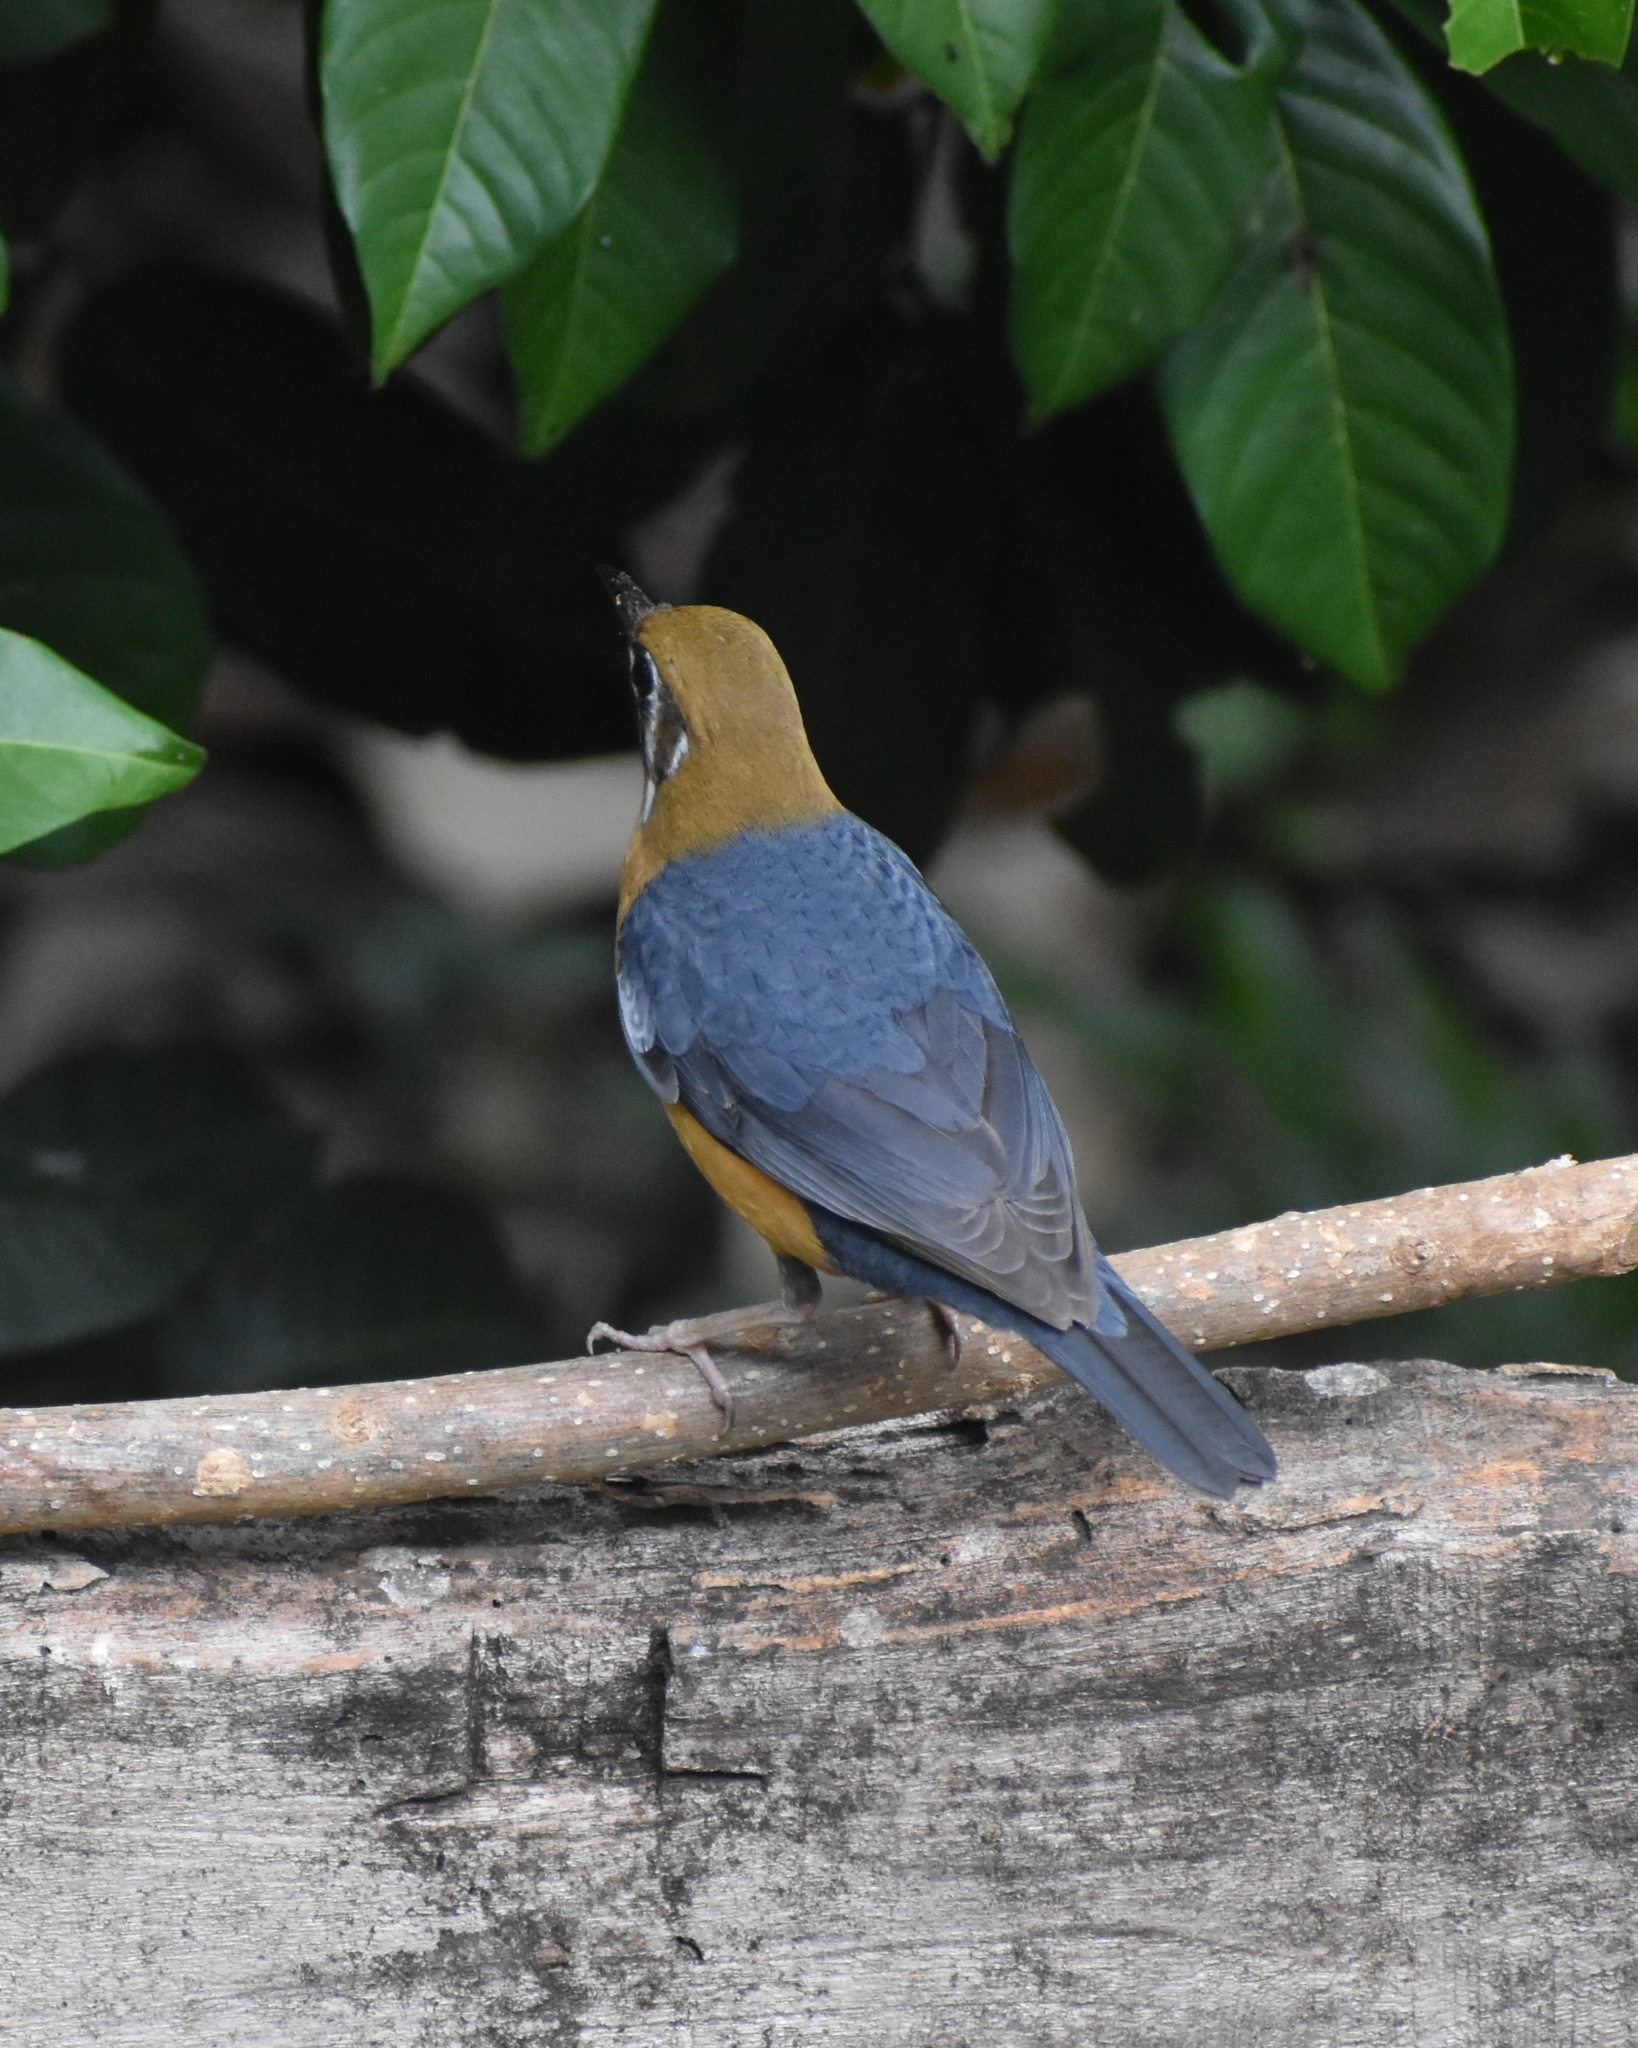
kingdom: Animalia
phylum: Chordata
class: Aves
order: Passeriformes
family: Turdidae
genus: Geokichla
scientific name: Geokichla citrina
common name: Orange-headed thrush
